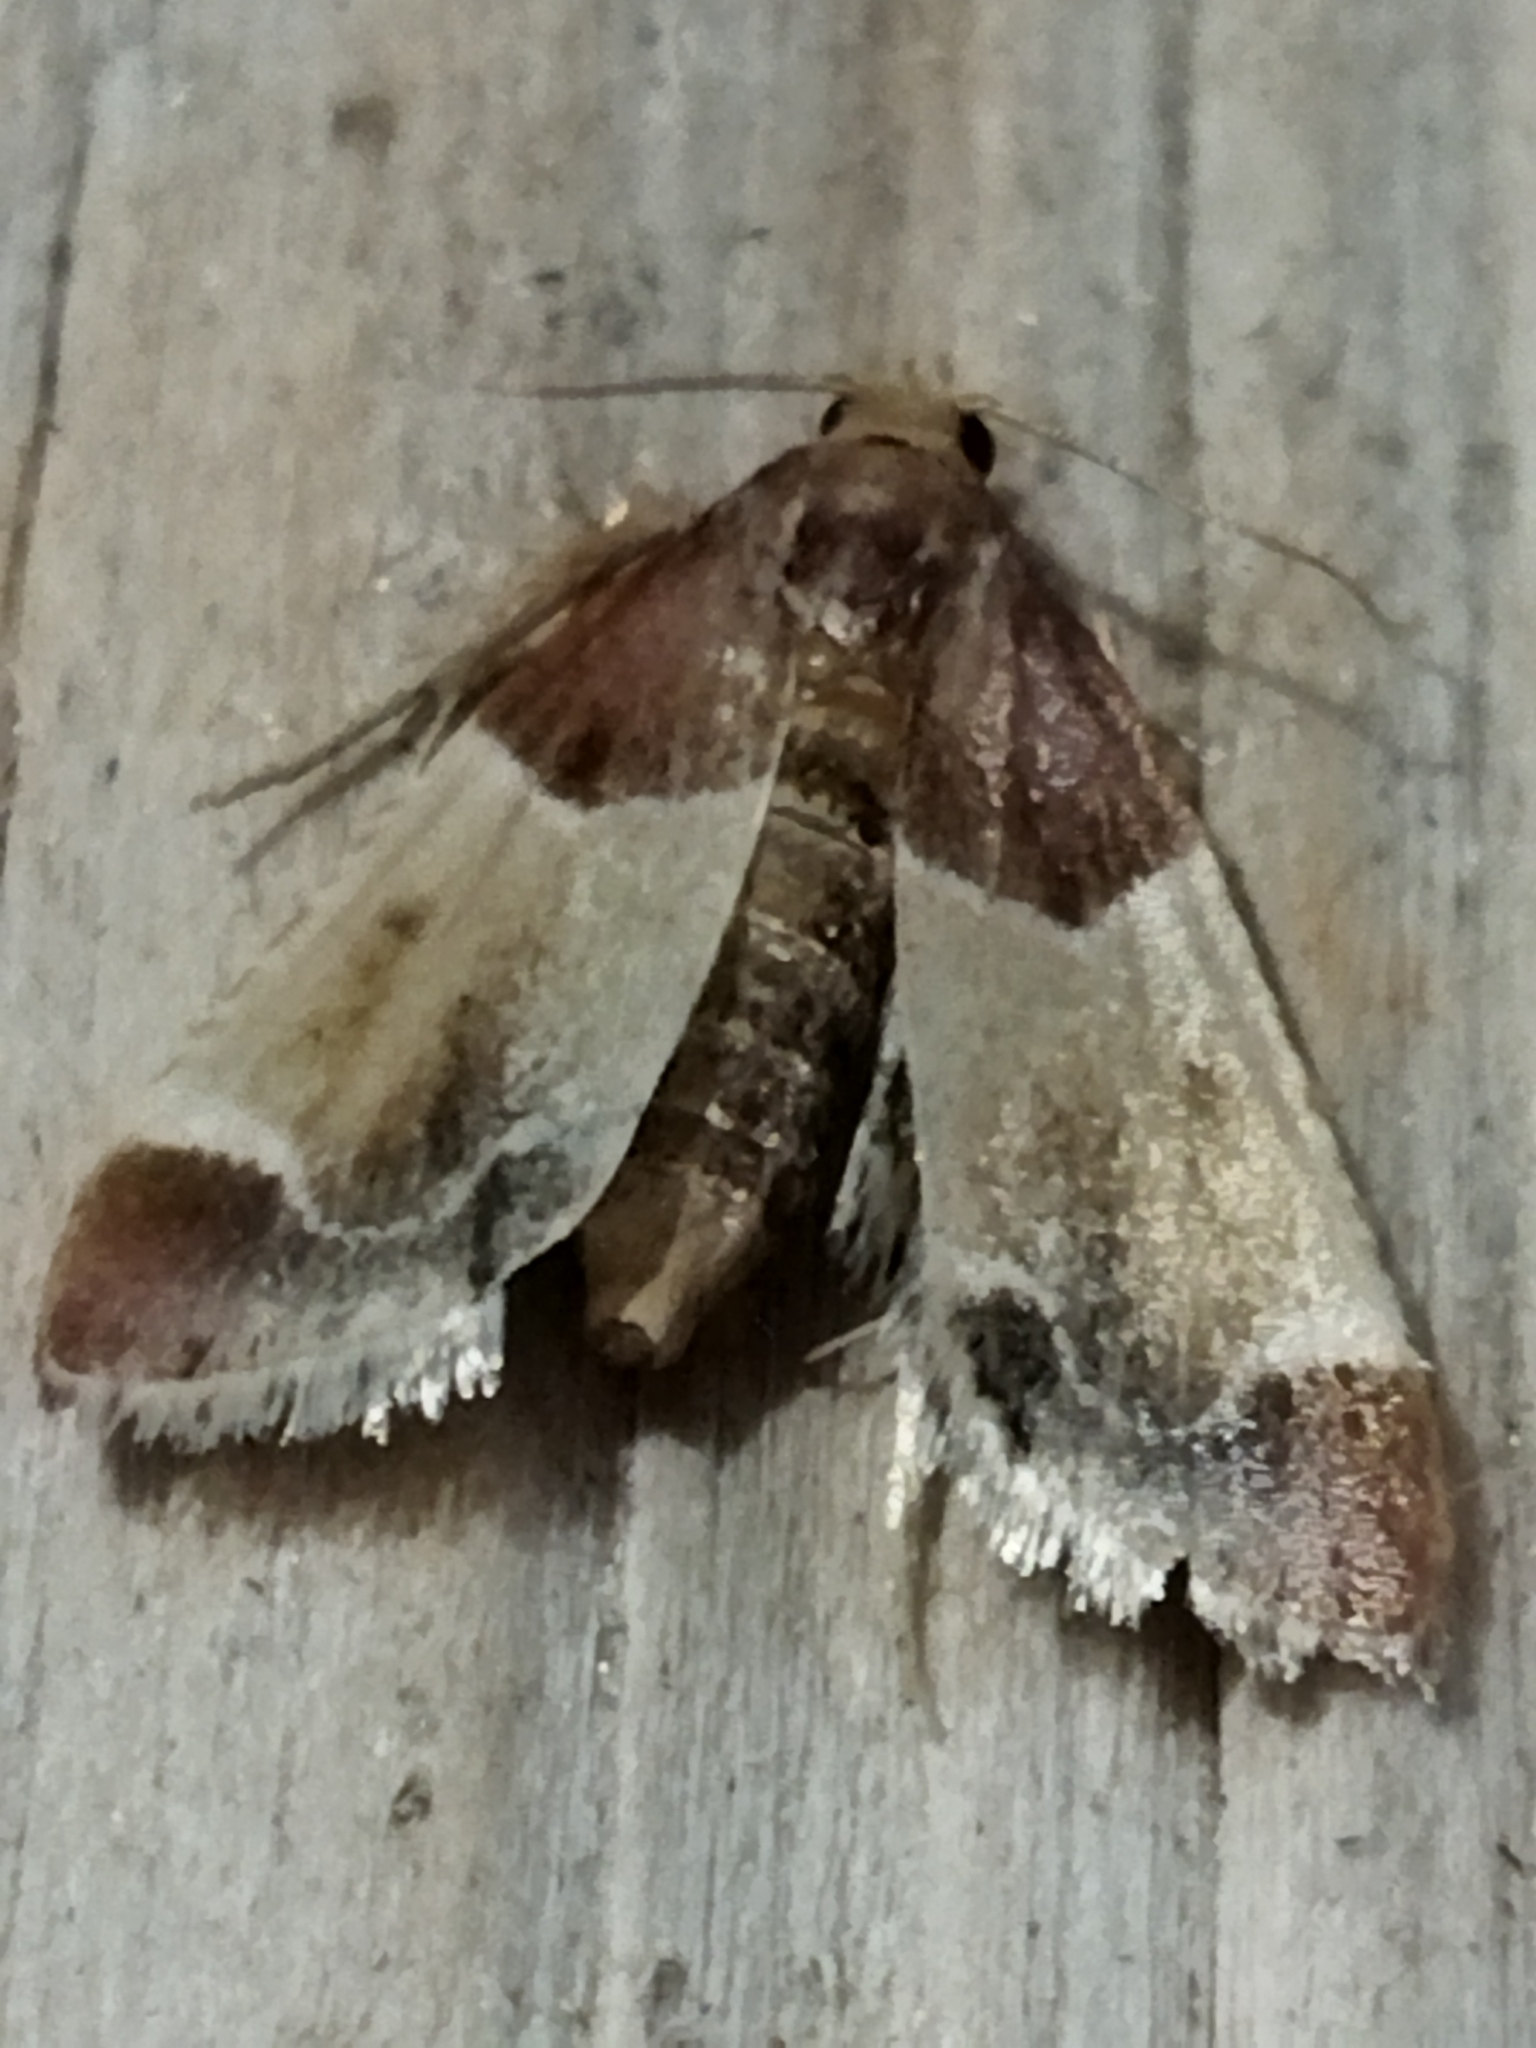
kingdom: Animalia
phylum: Arthropoda
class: Insecta
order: Lepidoptera
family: Pyralidae
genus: Pyralis
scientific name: Pyralis farinalis
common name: Meal moth
